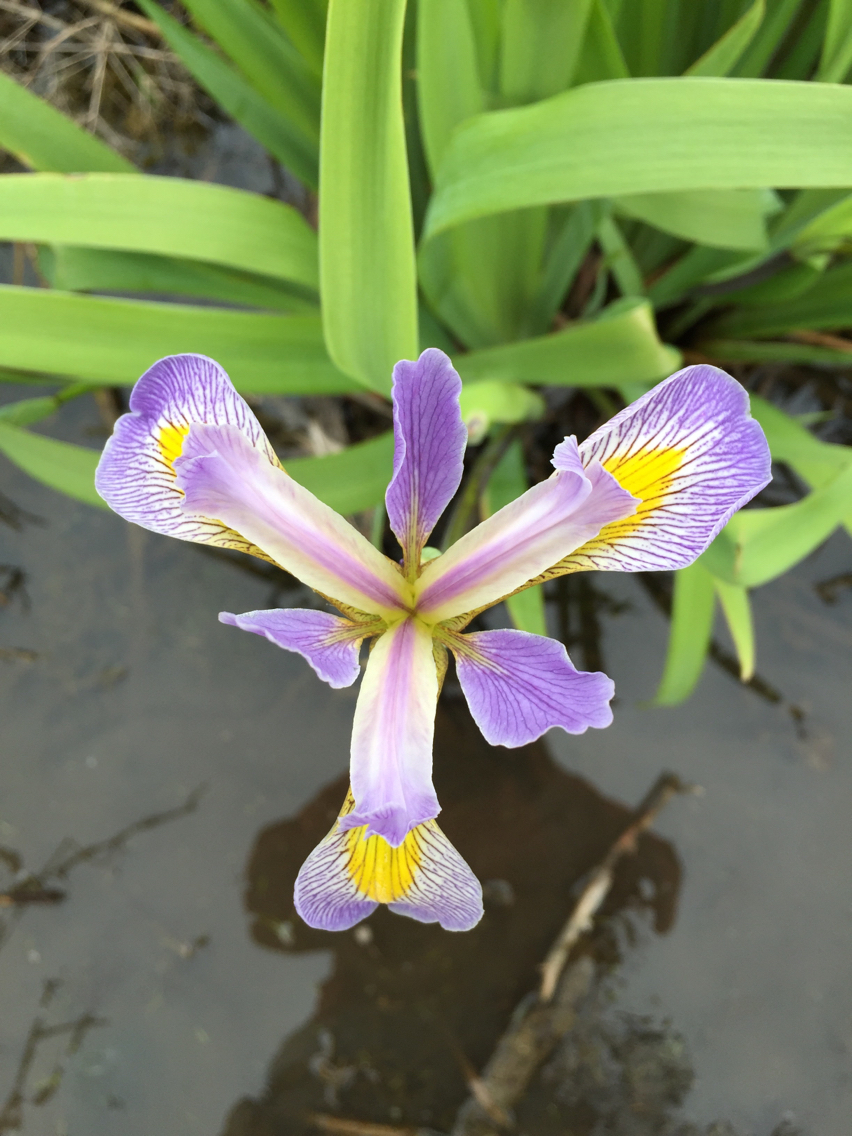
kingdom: Plantae
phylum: Tracheophyta
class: Liliopsida
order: Asparagales
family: Iridaceae
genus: Iris
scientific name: Iris virginica
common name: Southern blue flag
